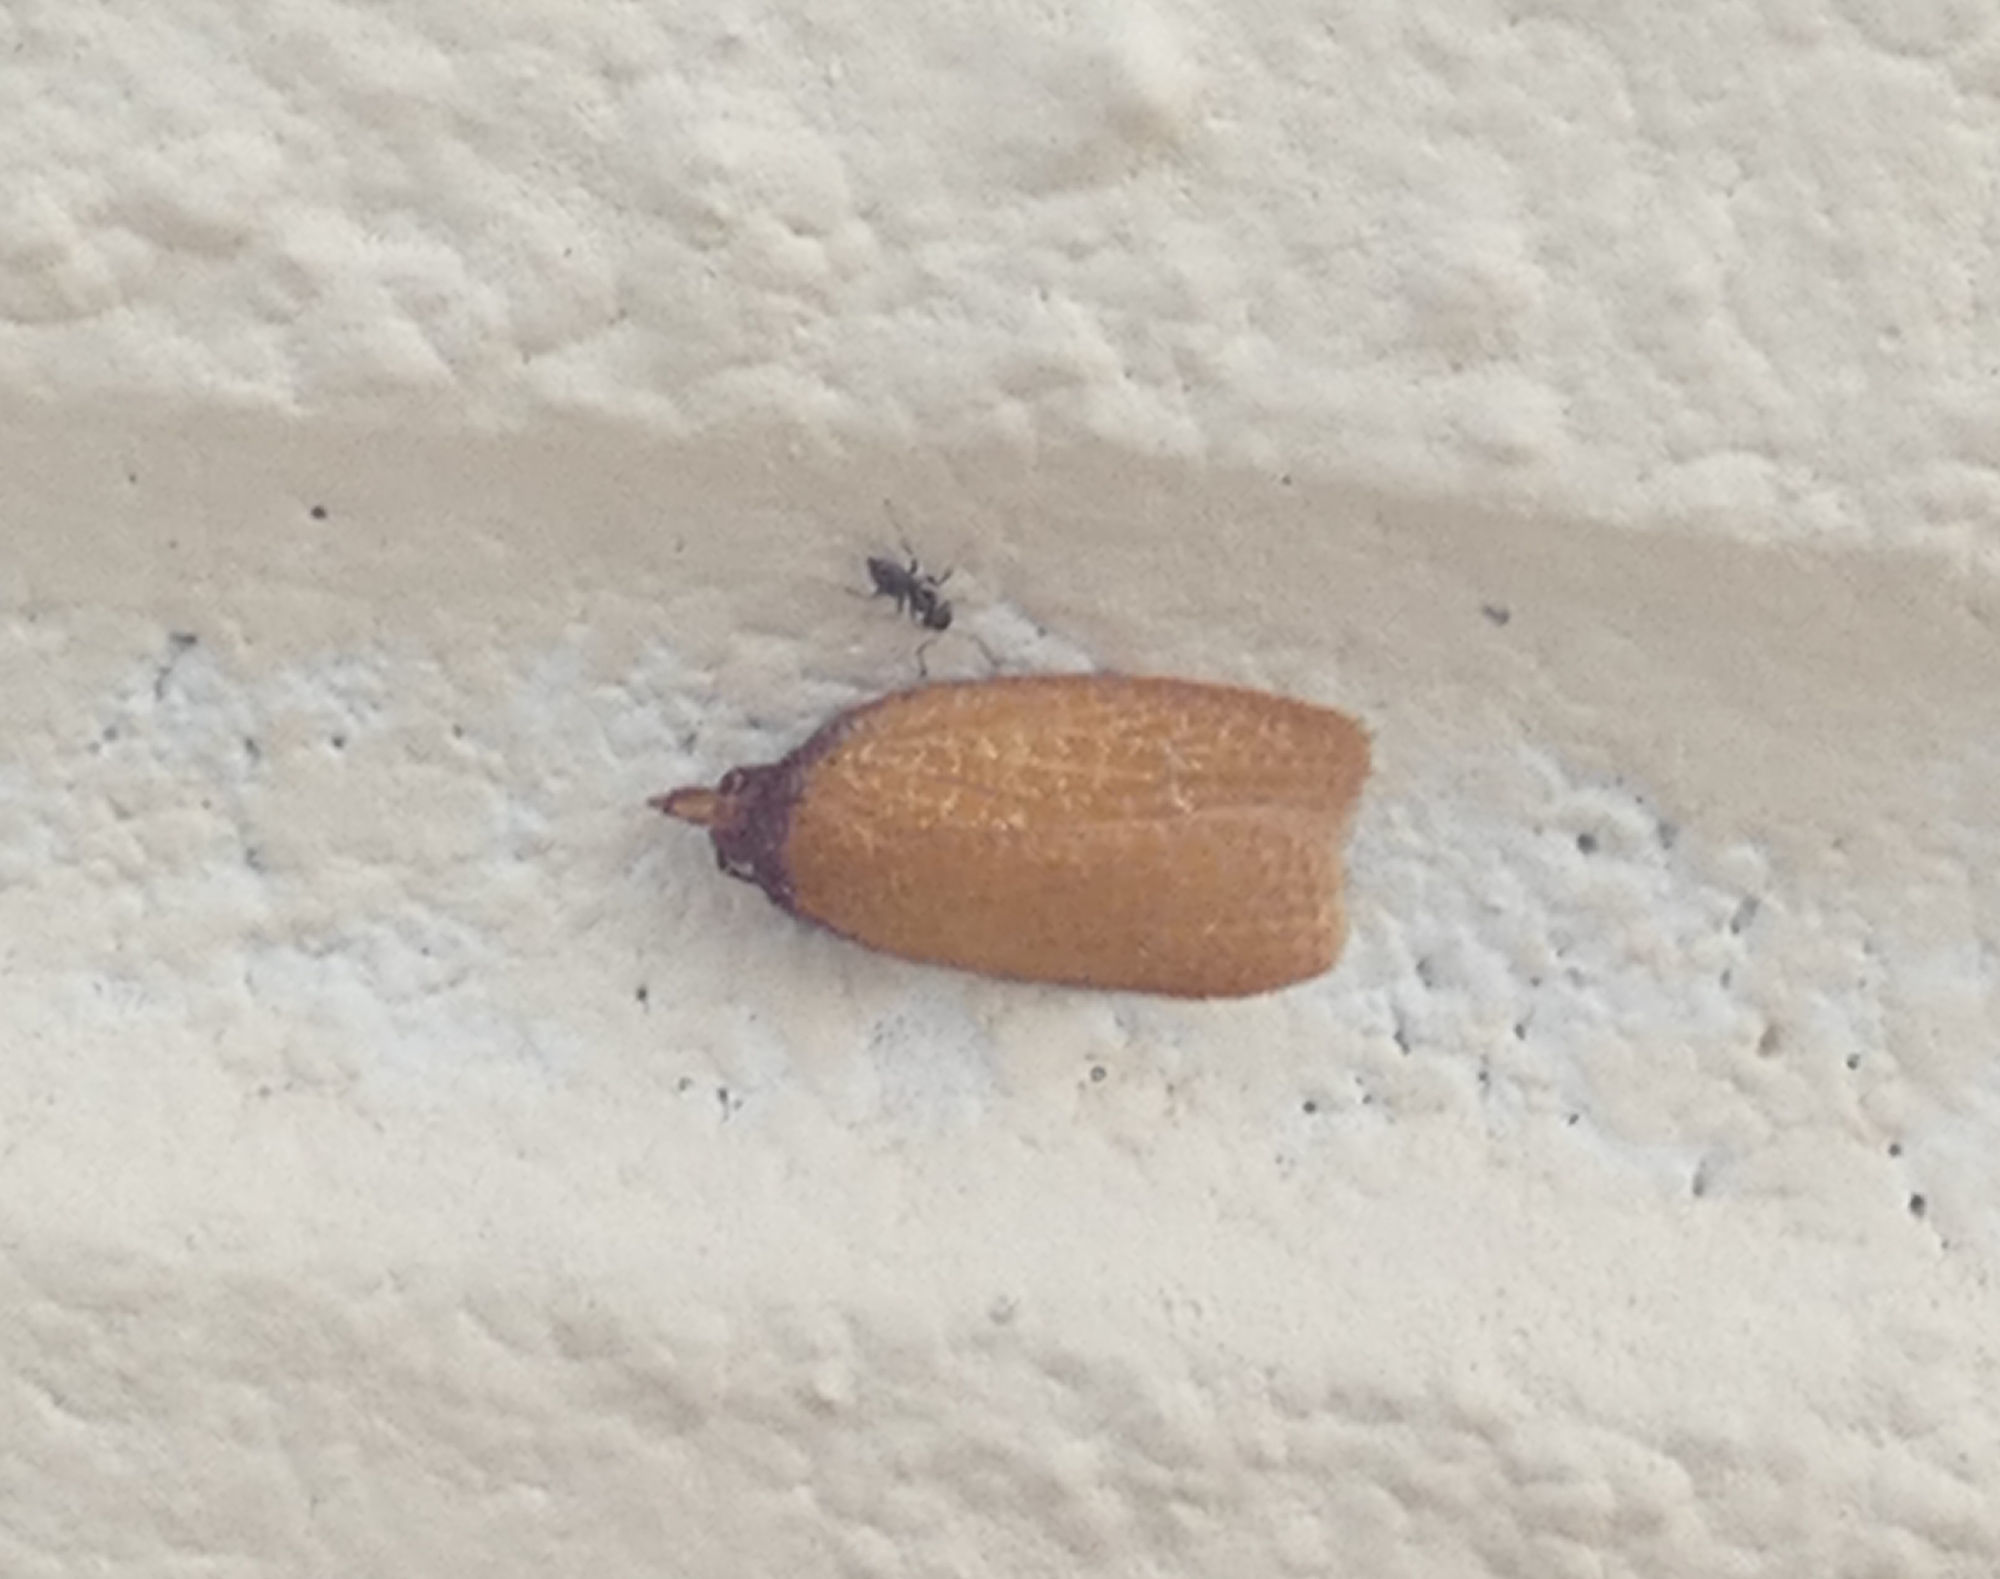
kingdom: Animalia
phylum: Arthropoda
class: Insecta
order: Lepidoptera
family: Tortricidae
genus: Sparganothis
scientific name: Sparganothis distincta
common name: Distinct sparganothis moth
